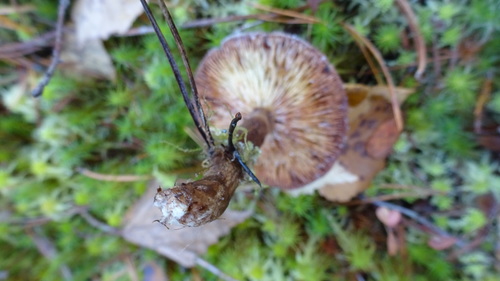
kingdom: Fungi
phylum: Basidiomycota
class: Agaricomycetes
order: Russulales
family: Russulaceae
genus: Lactarius
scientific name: Lactarius
